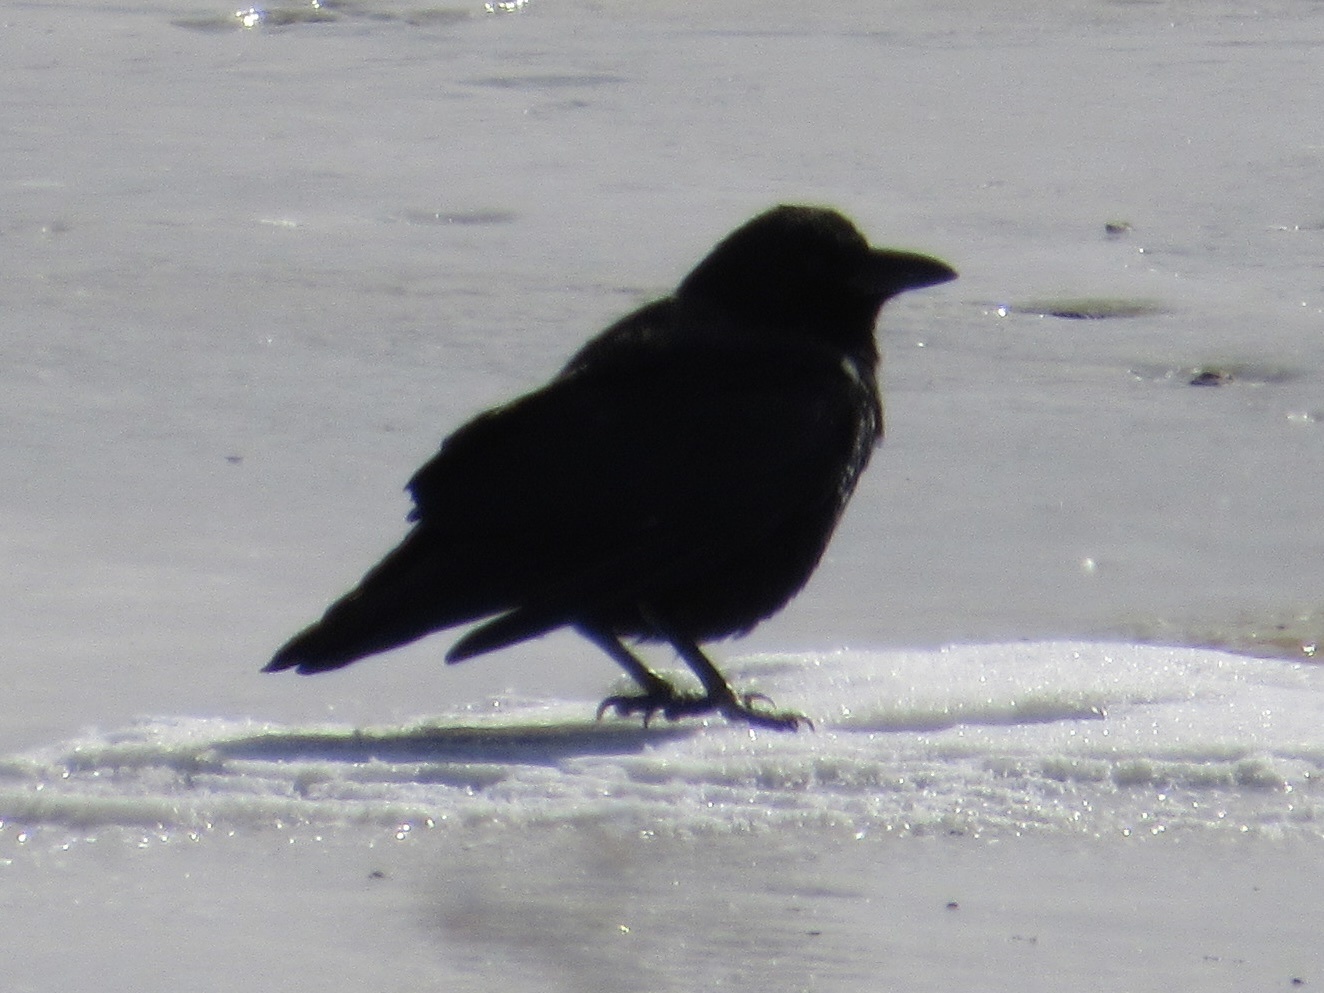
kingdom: Animalia
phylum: Chordata
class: Aves
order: Passeriformes
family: Corvidae
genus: Corvus
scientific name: Corvus brachyrhynchos
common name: American crow
